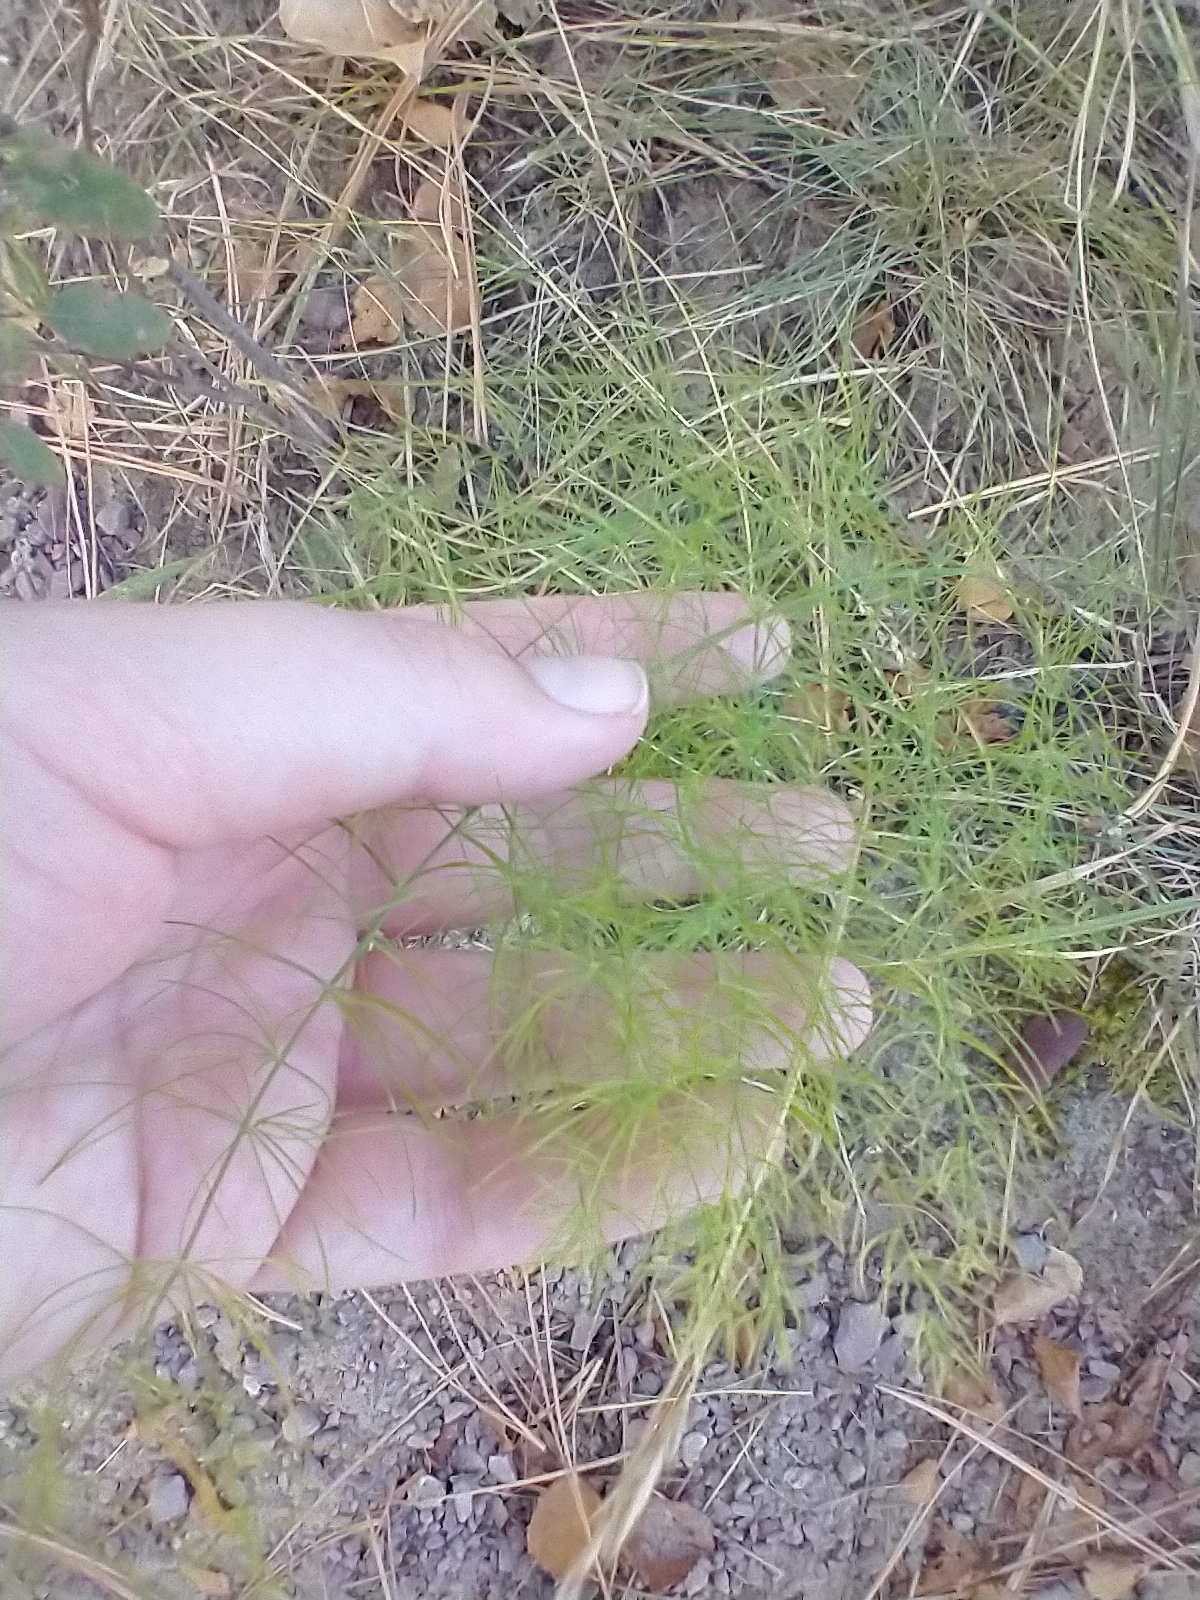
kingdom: Plantae
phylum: Tracheophyta
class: Liliopsida
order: Asparagales
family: Asparagaceae
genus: Asparagus
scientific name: Asparagus officinalis
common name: Garden asparagus
